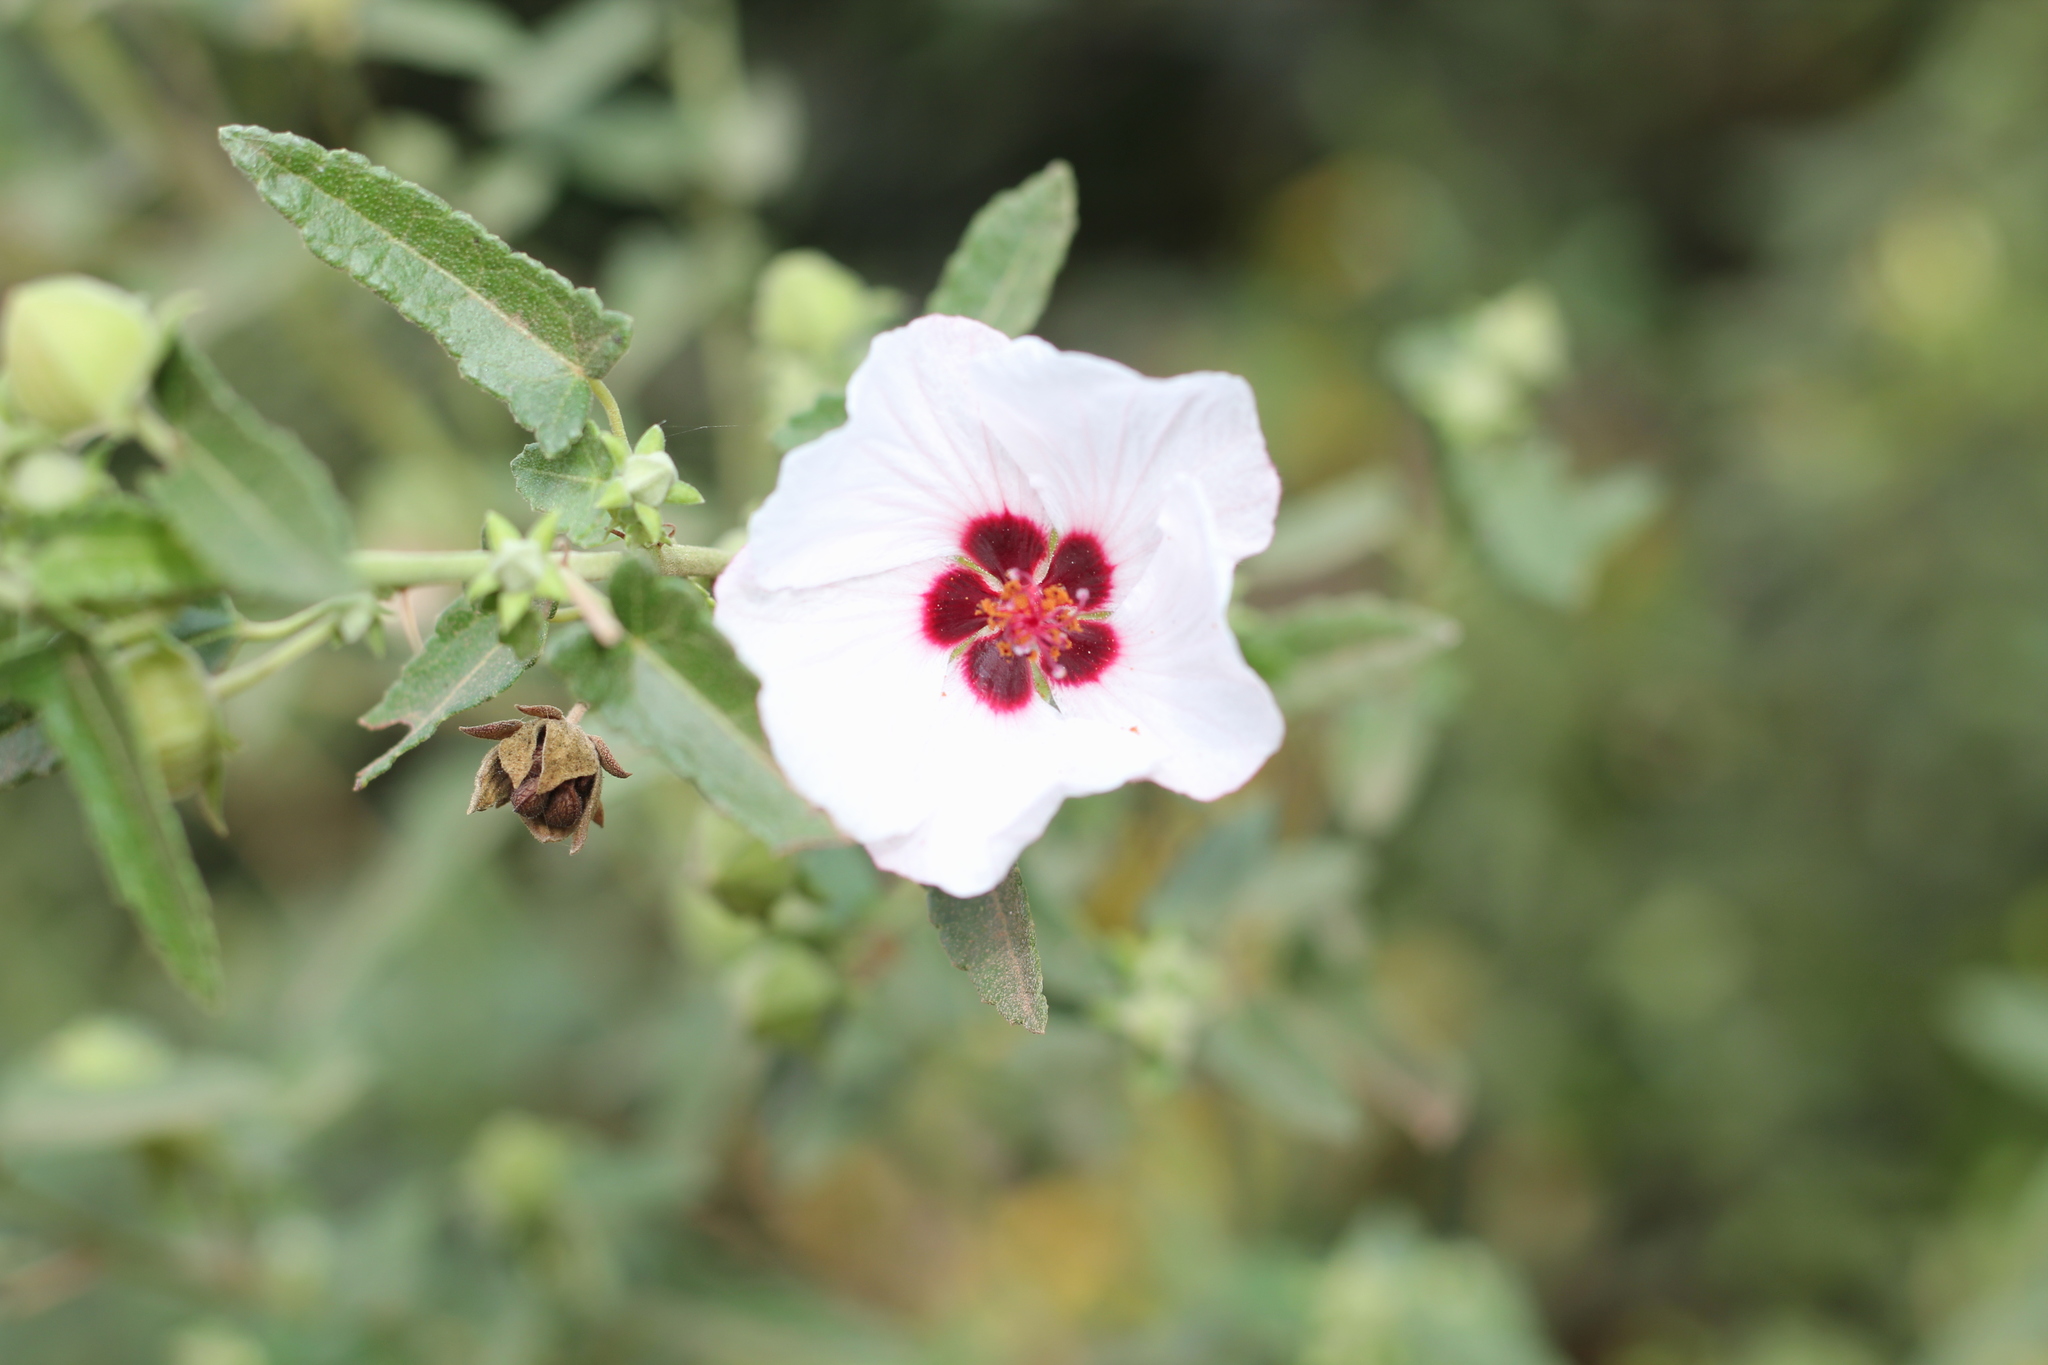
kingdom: Plantae
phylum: Tracheophyta
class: Magnoliopsida
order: Malvales
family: Malvaceae
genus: Pavonia
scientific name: Pavonia hastata
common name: Spearleaf swampmallow
